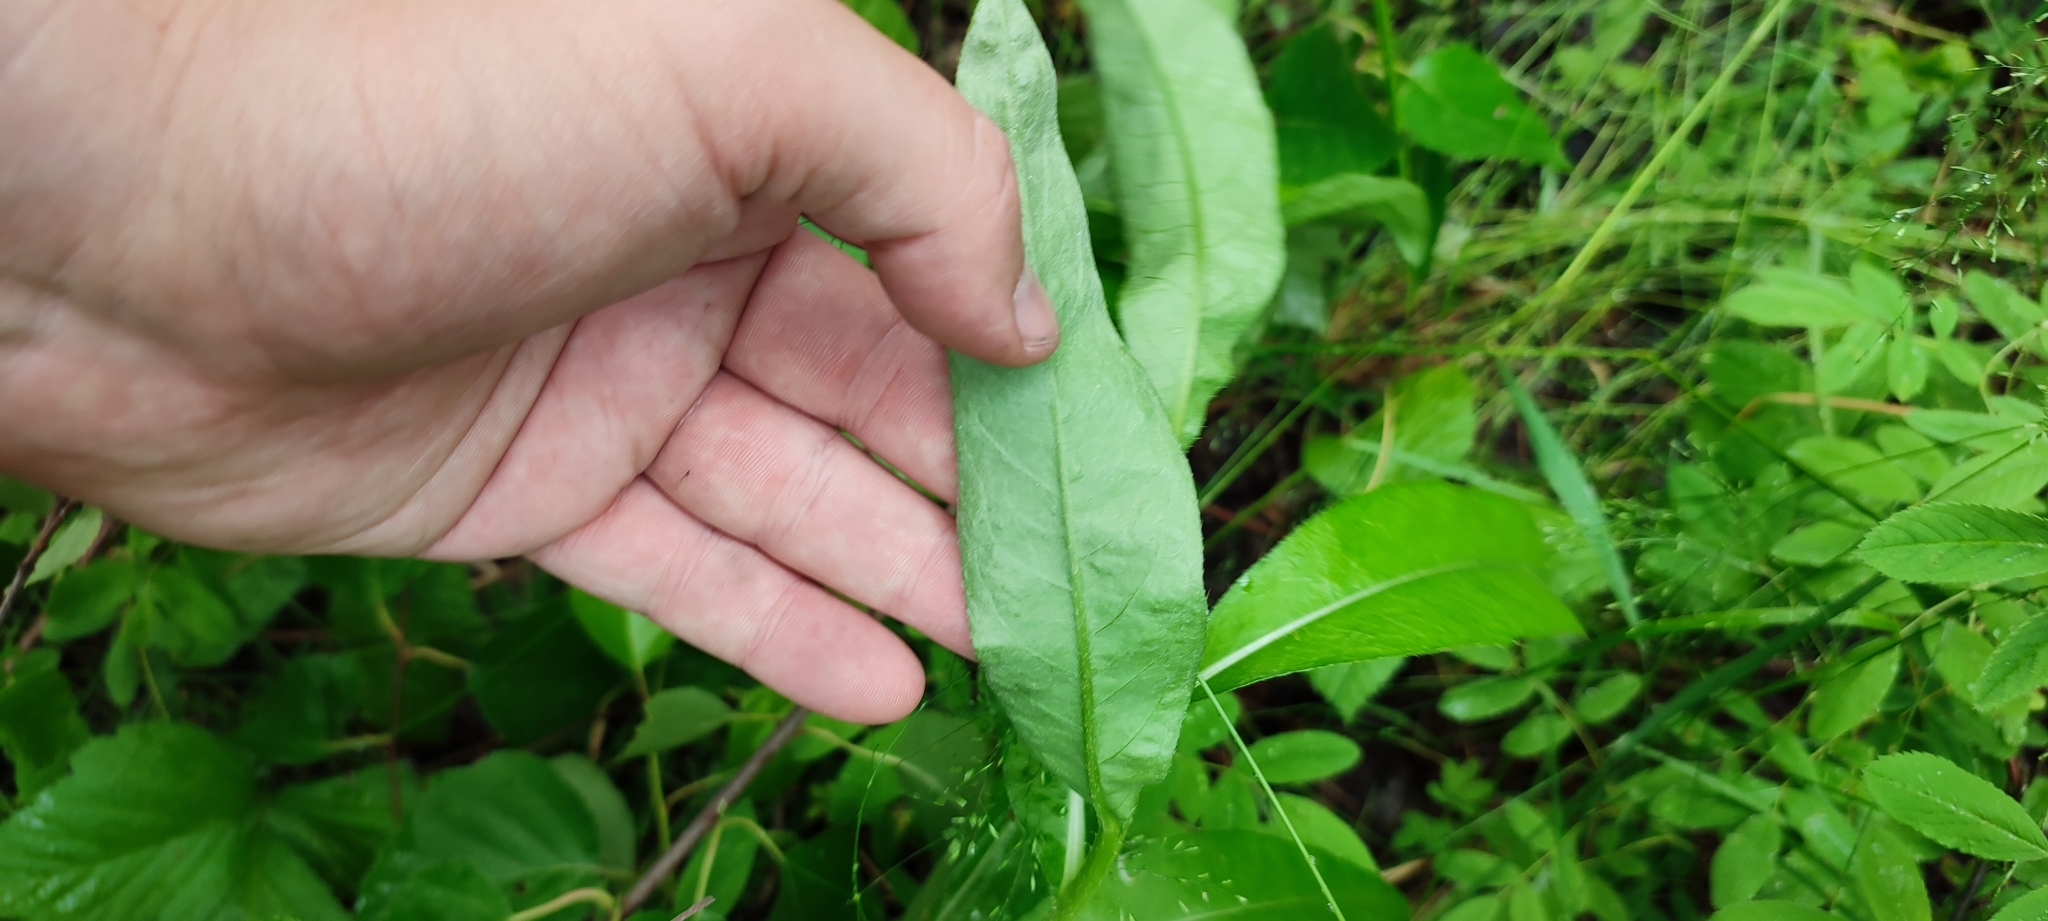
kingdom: Plantae
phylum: Tracheophyta
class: Magnoliopsida
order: Asterales
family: Asteraceae
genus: Cirsium
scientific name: Cirsium arvense
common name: Creeping thistle
